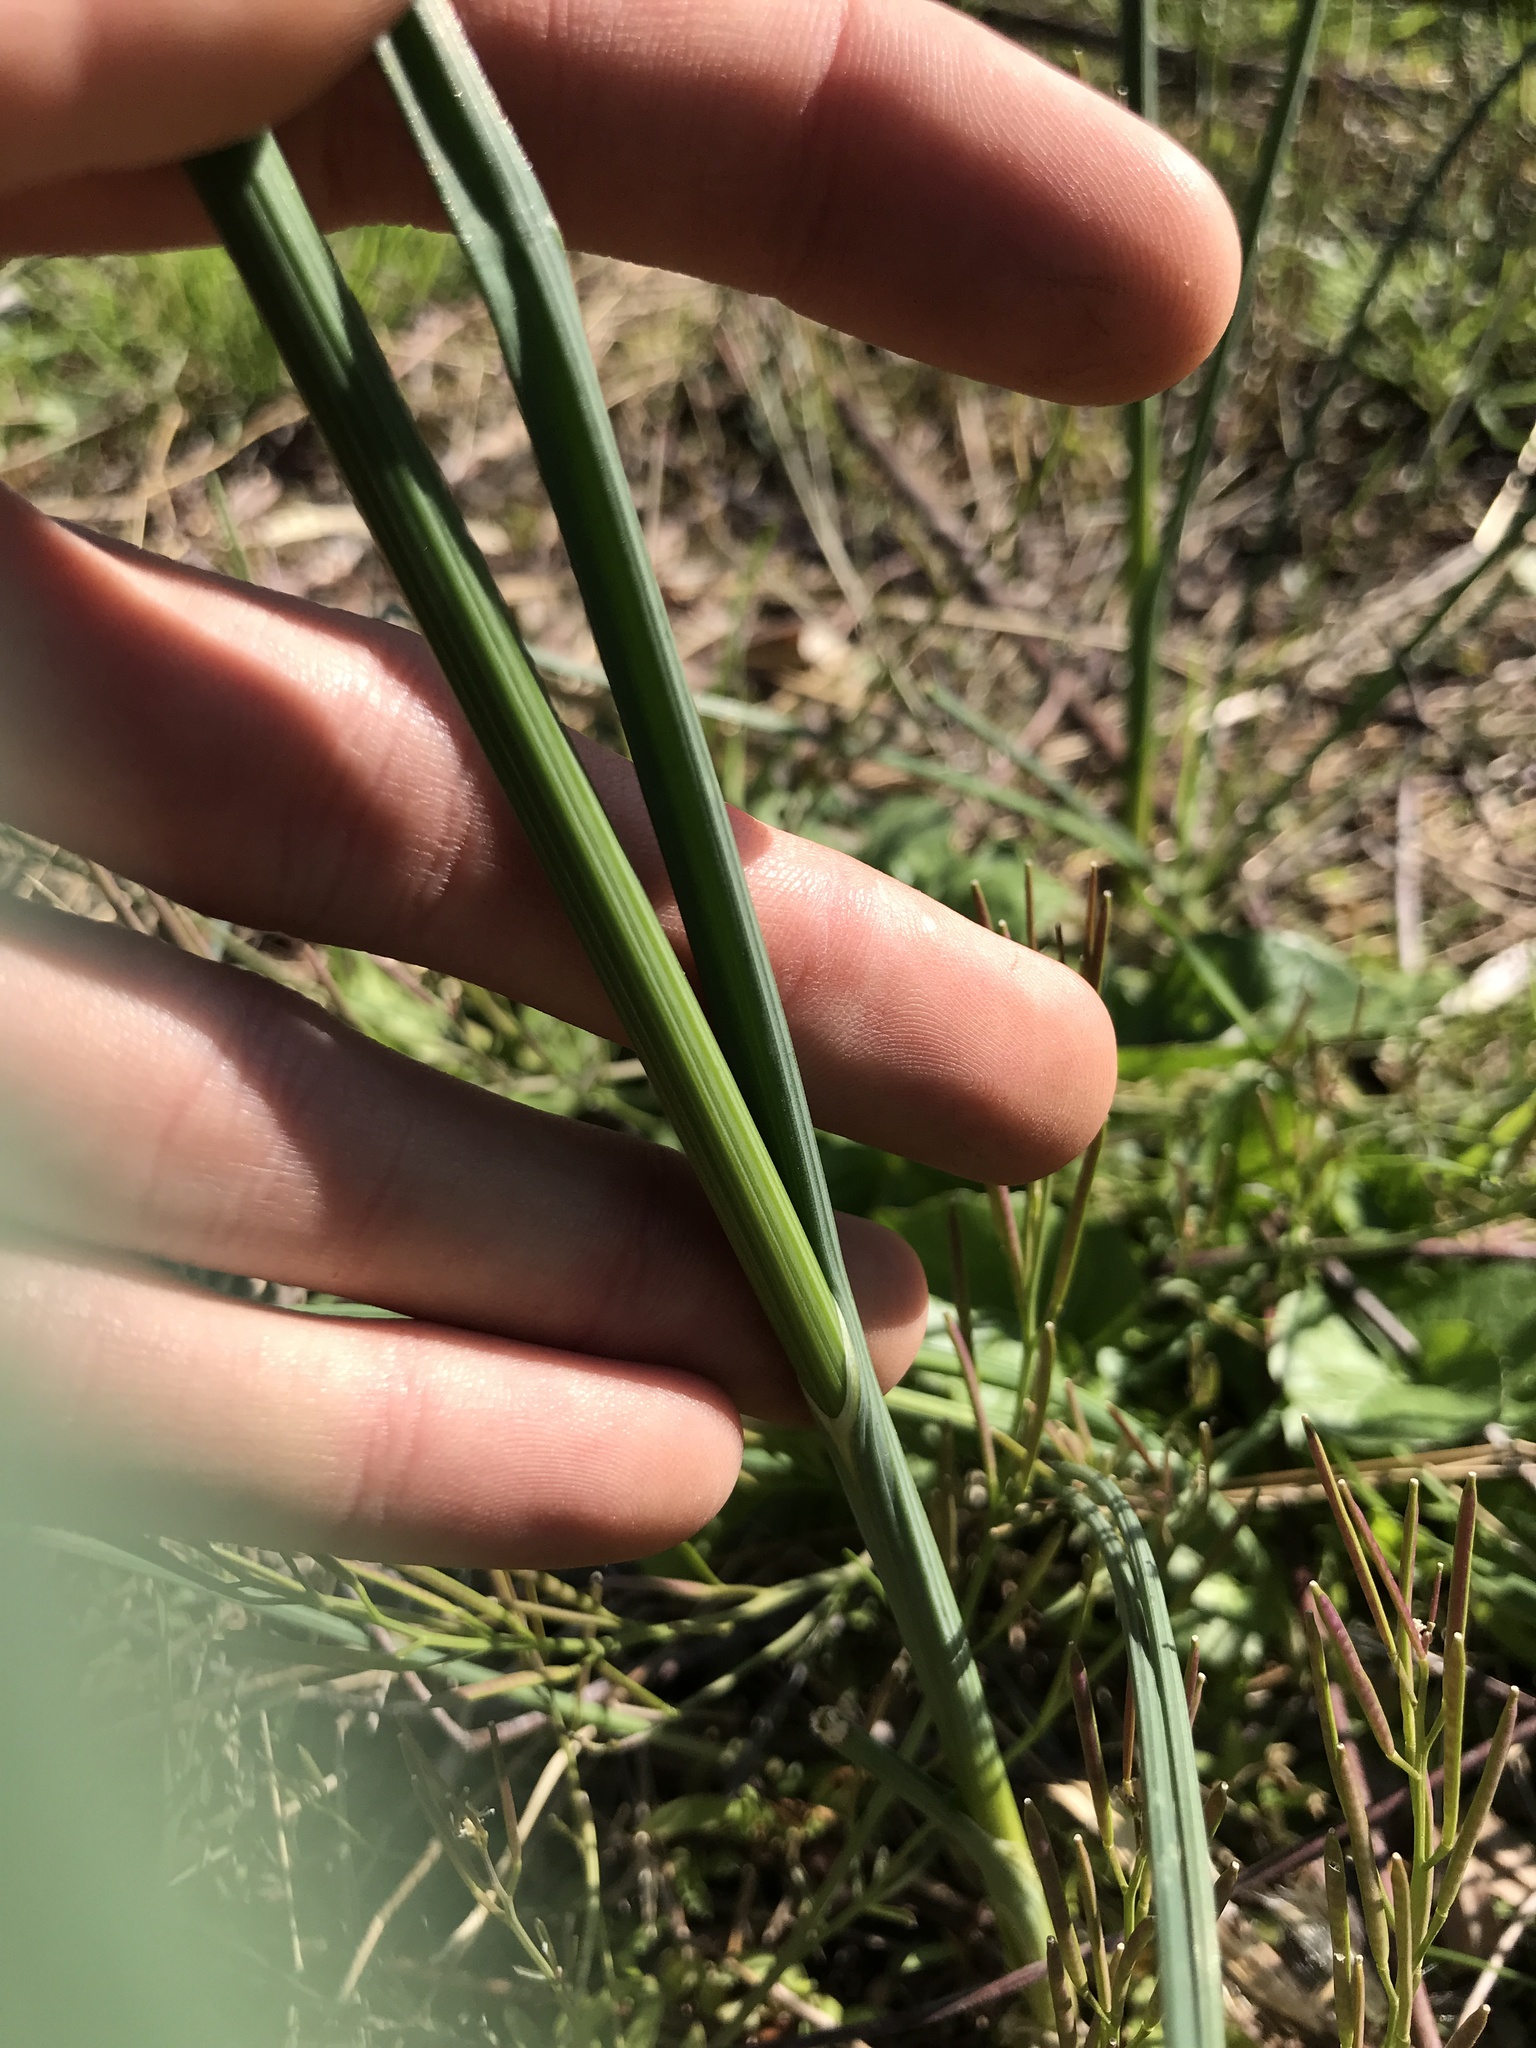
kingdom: Plantae
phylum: Tracheophyta
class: Liliopsida
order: Asparagales
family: Amaryllidaceae
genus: Allium
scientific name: Allium vineale
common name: Crow garlic
